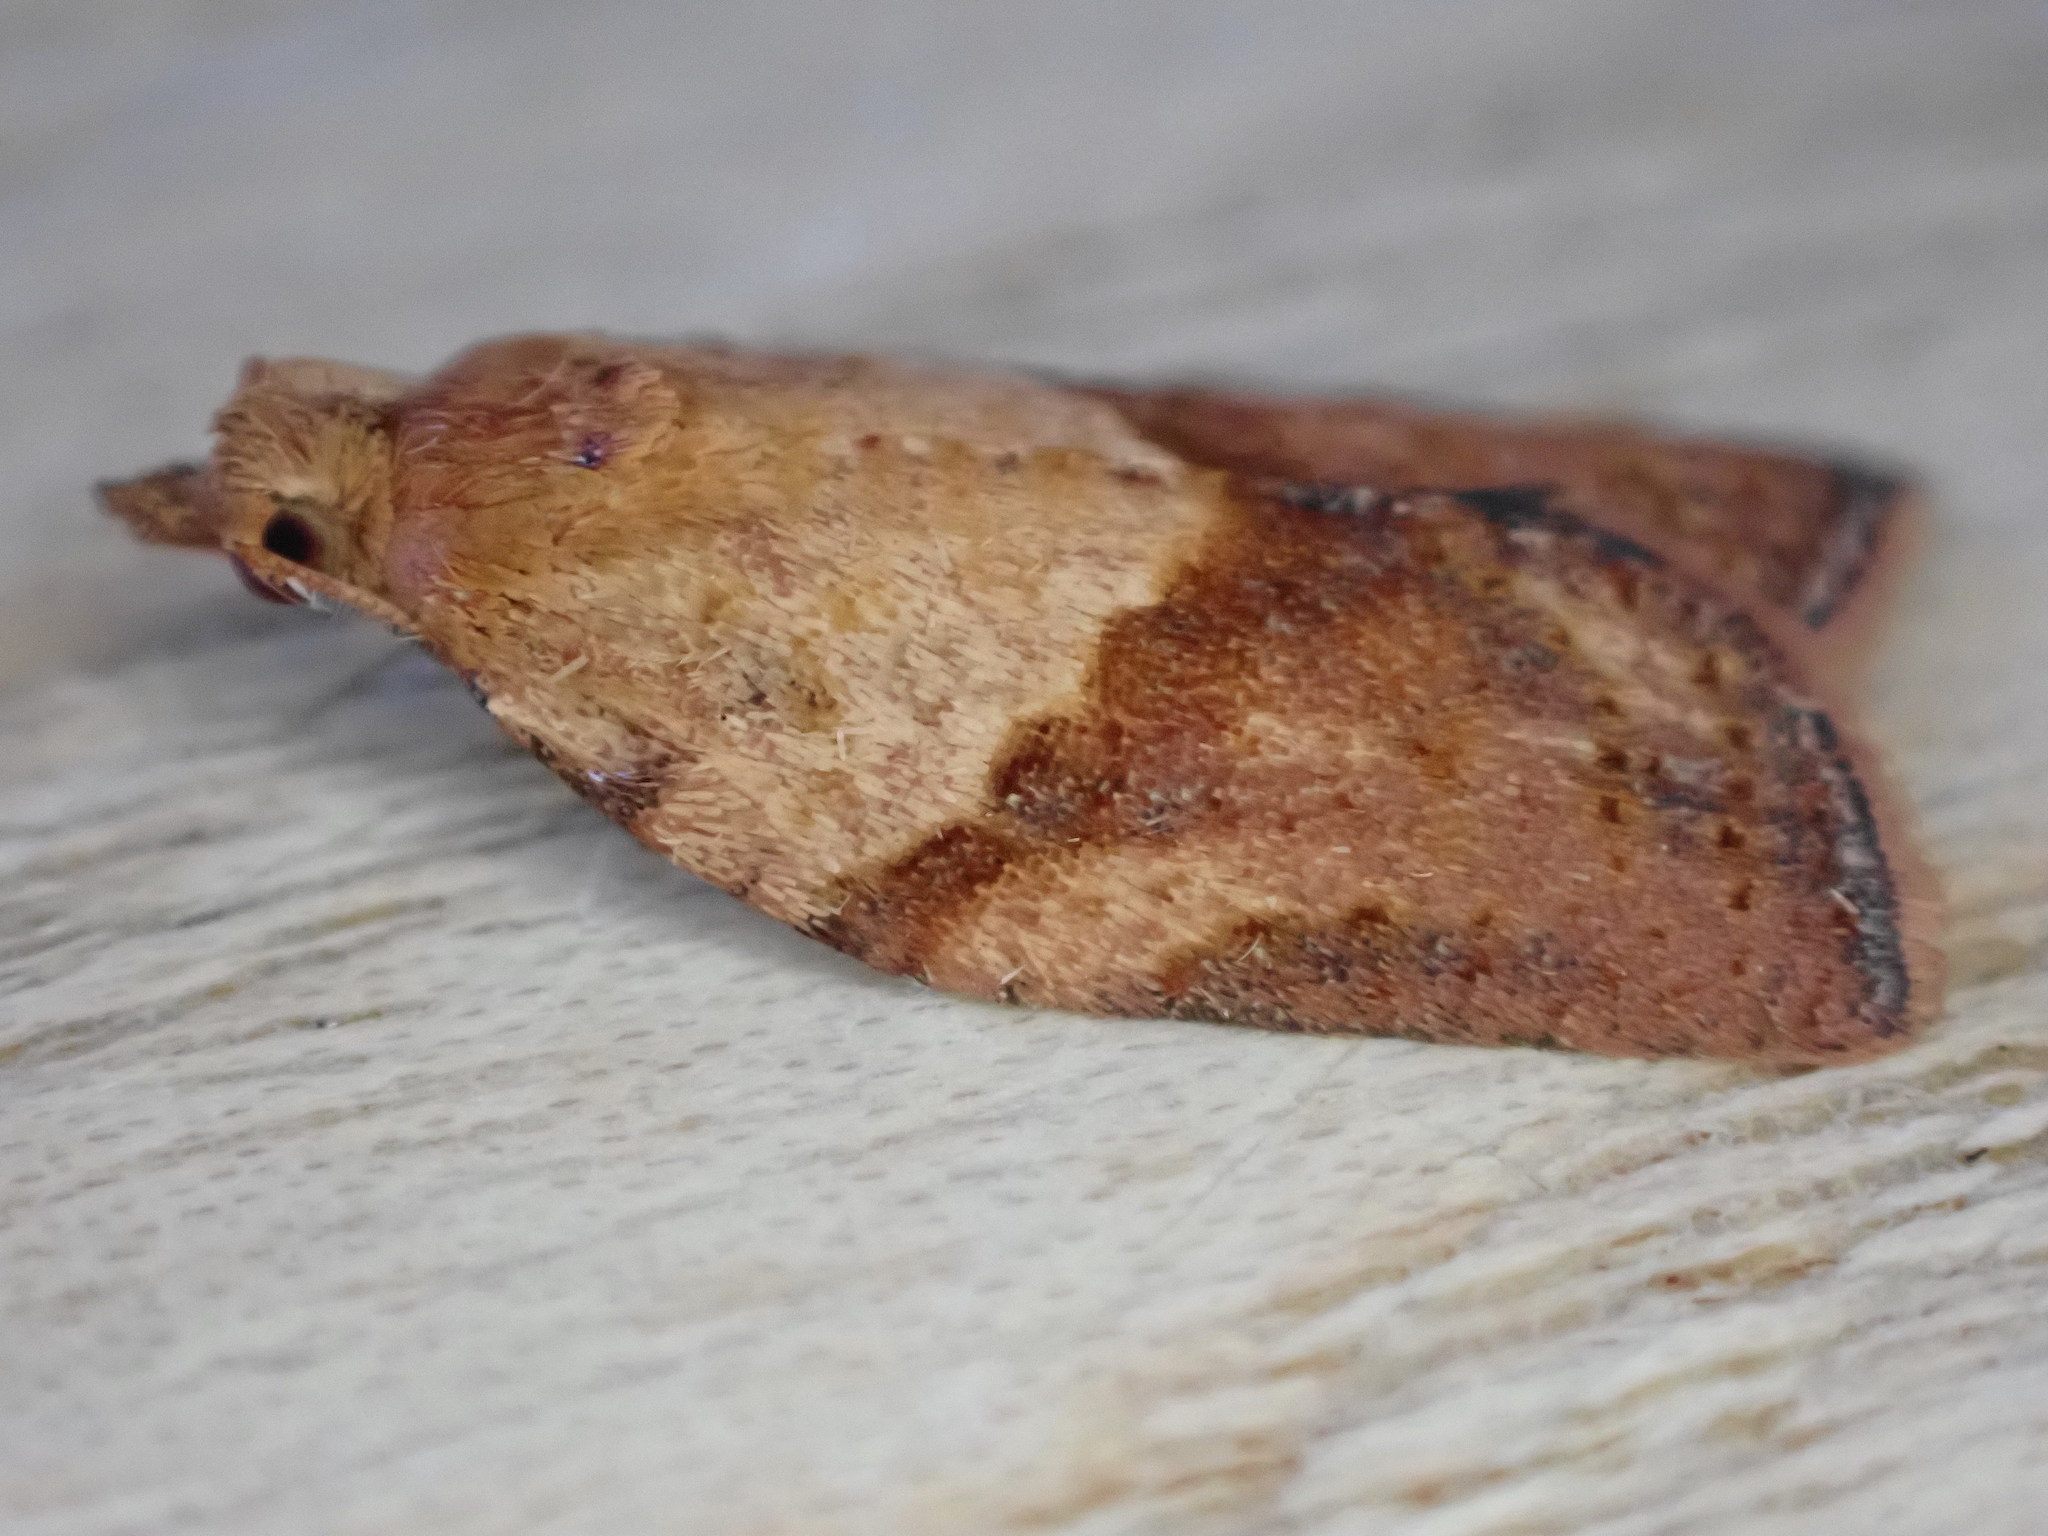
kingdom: Animalia
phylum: Arthropoda
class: Insecta
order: Lepidoptera
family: Tortricidae
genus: Epiphyas
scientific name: Epiphyas postvittana
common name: Light brown apple moth
